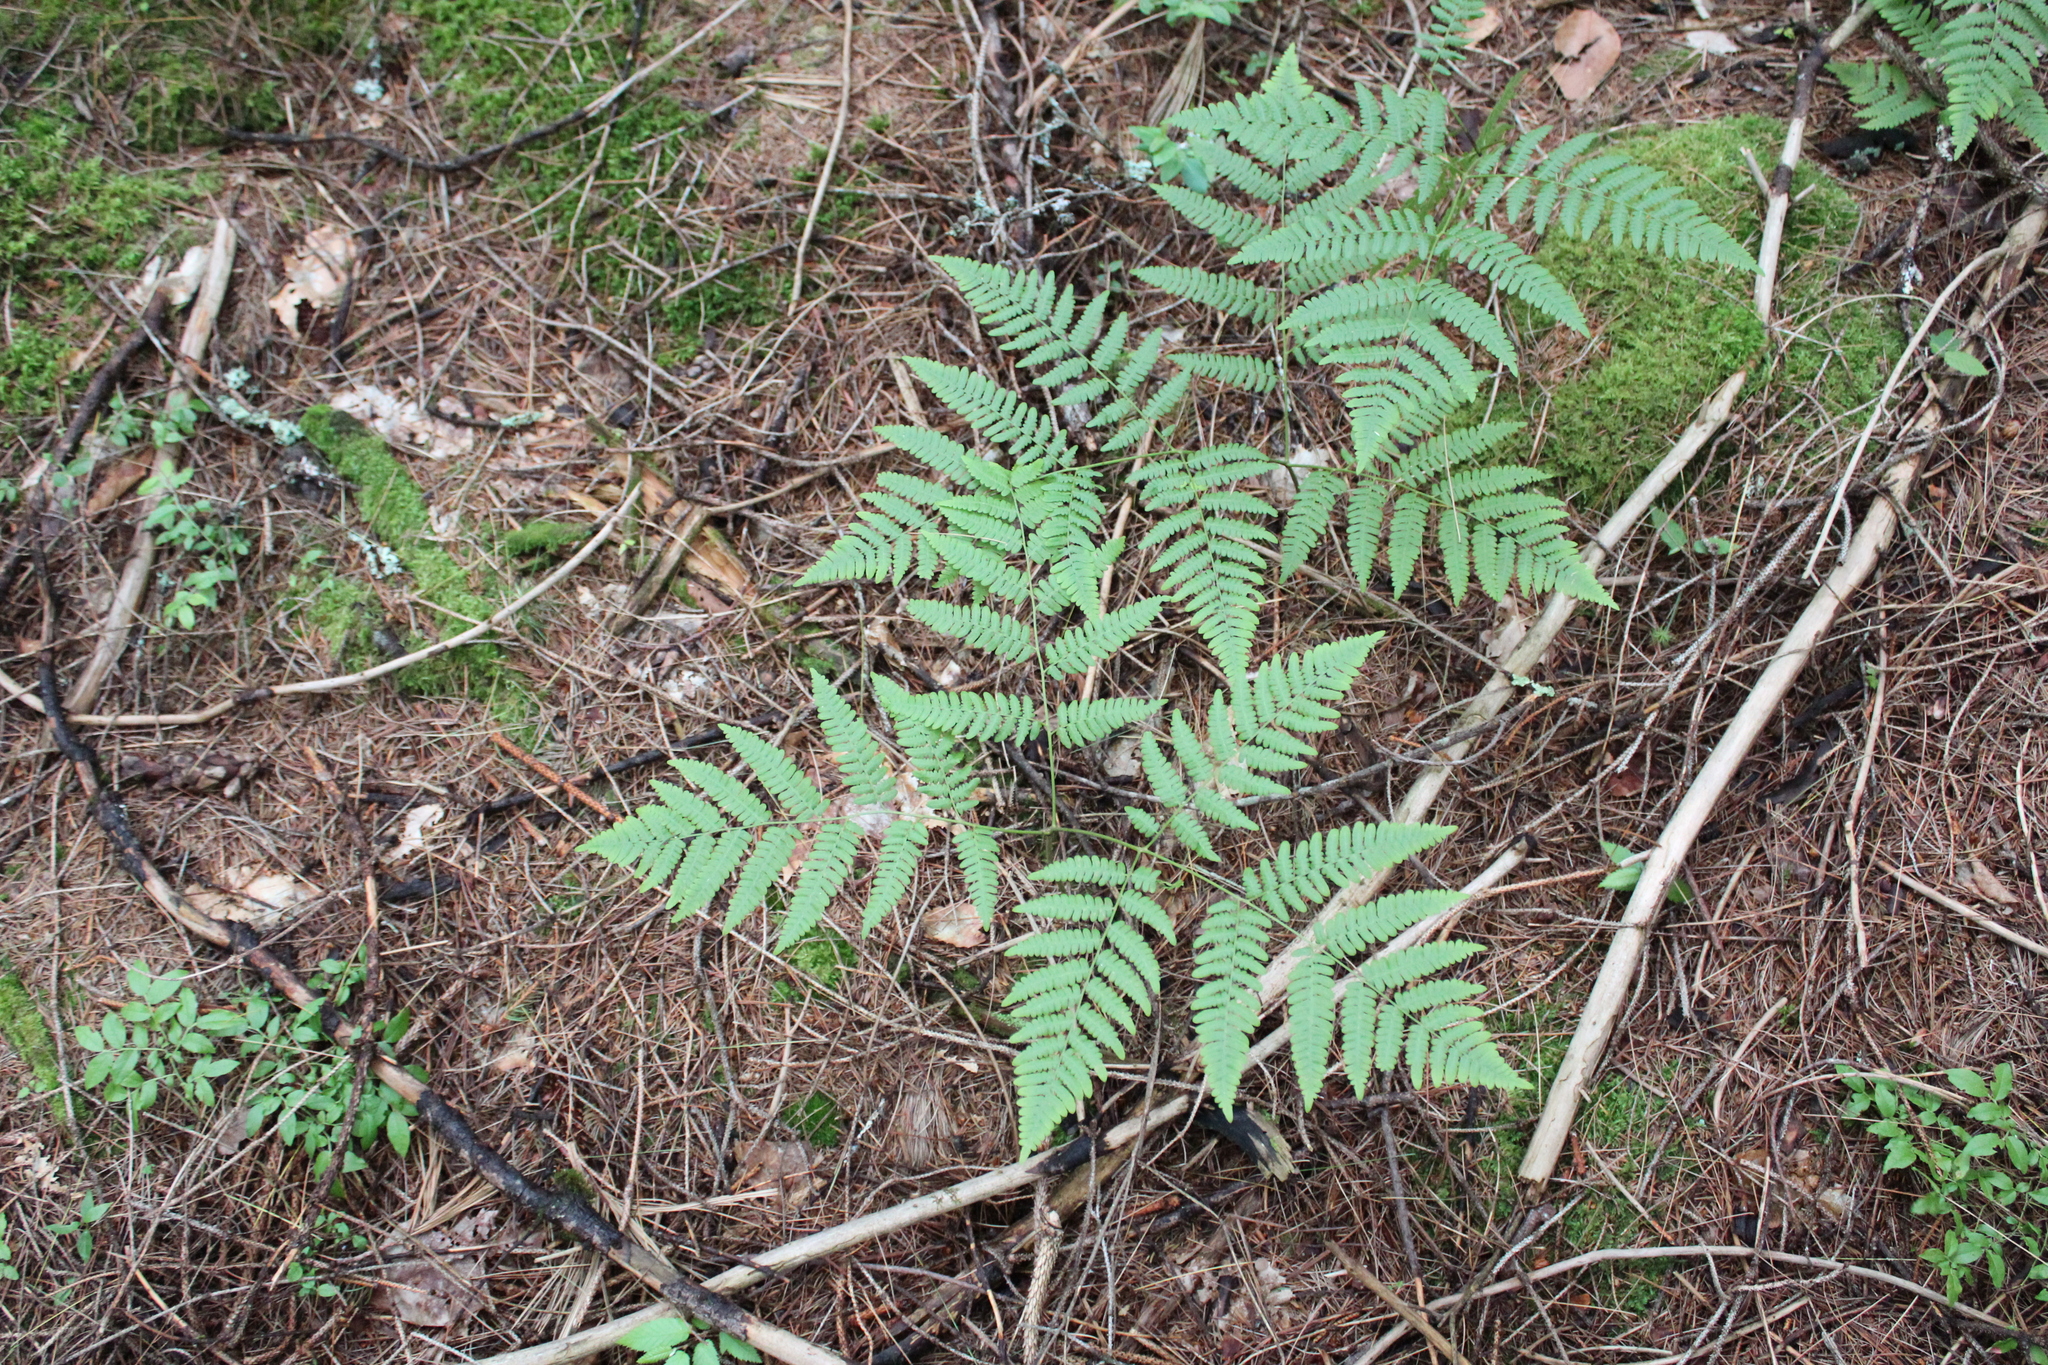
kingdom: Plantae
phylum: Tracheophyta
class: Polypodiopsida
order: Polypodiales
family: Dennstaedtiaceae
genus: Pteridium
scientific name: Pteridium aquilinum
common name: Bracken
